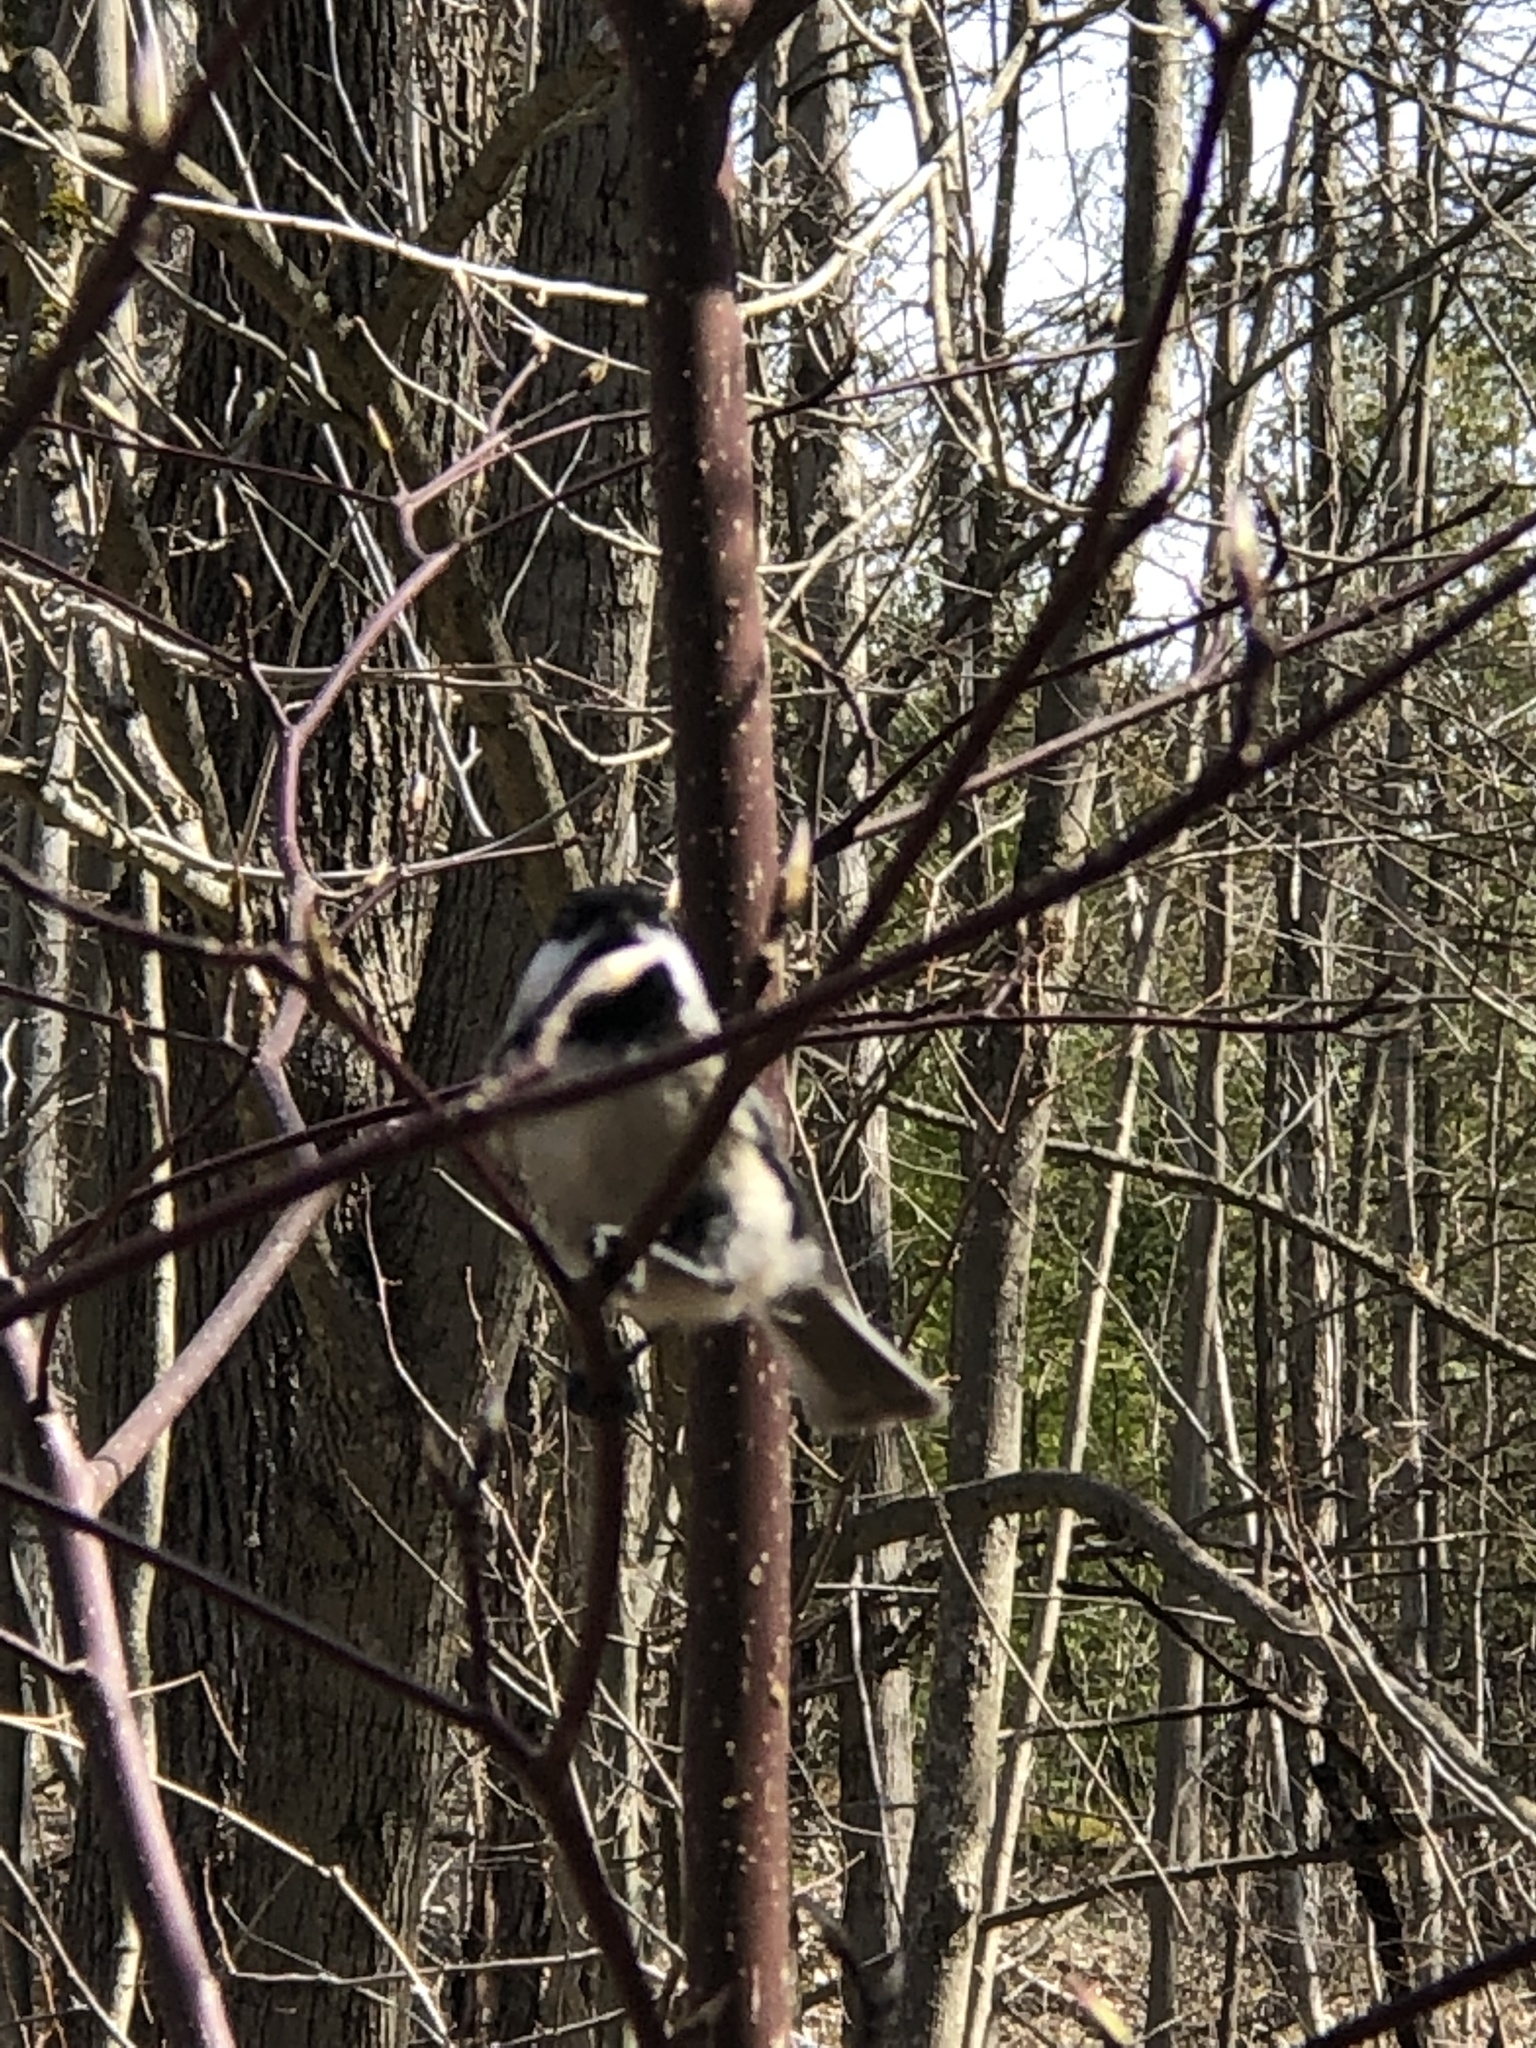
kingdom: Animalia
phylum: Chordata
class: Aves
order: Passeriformes
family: Paridae
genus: Poecile
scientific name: Poecile atricapillus
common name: Black-capped chickadee
